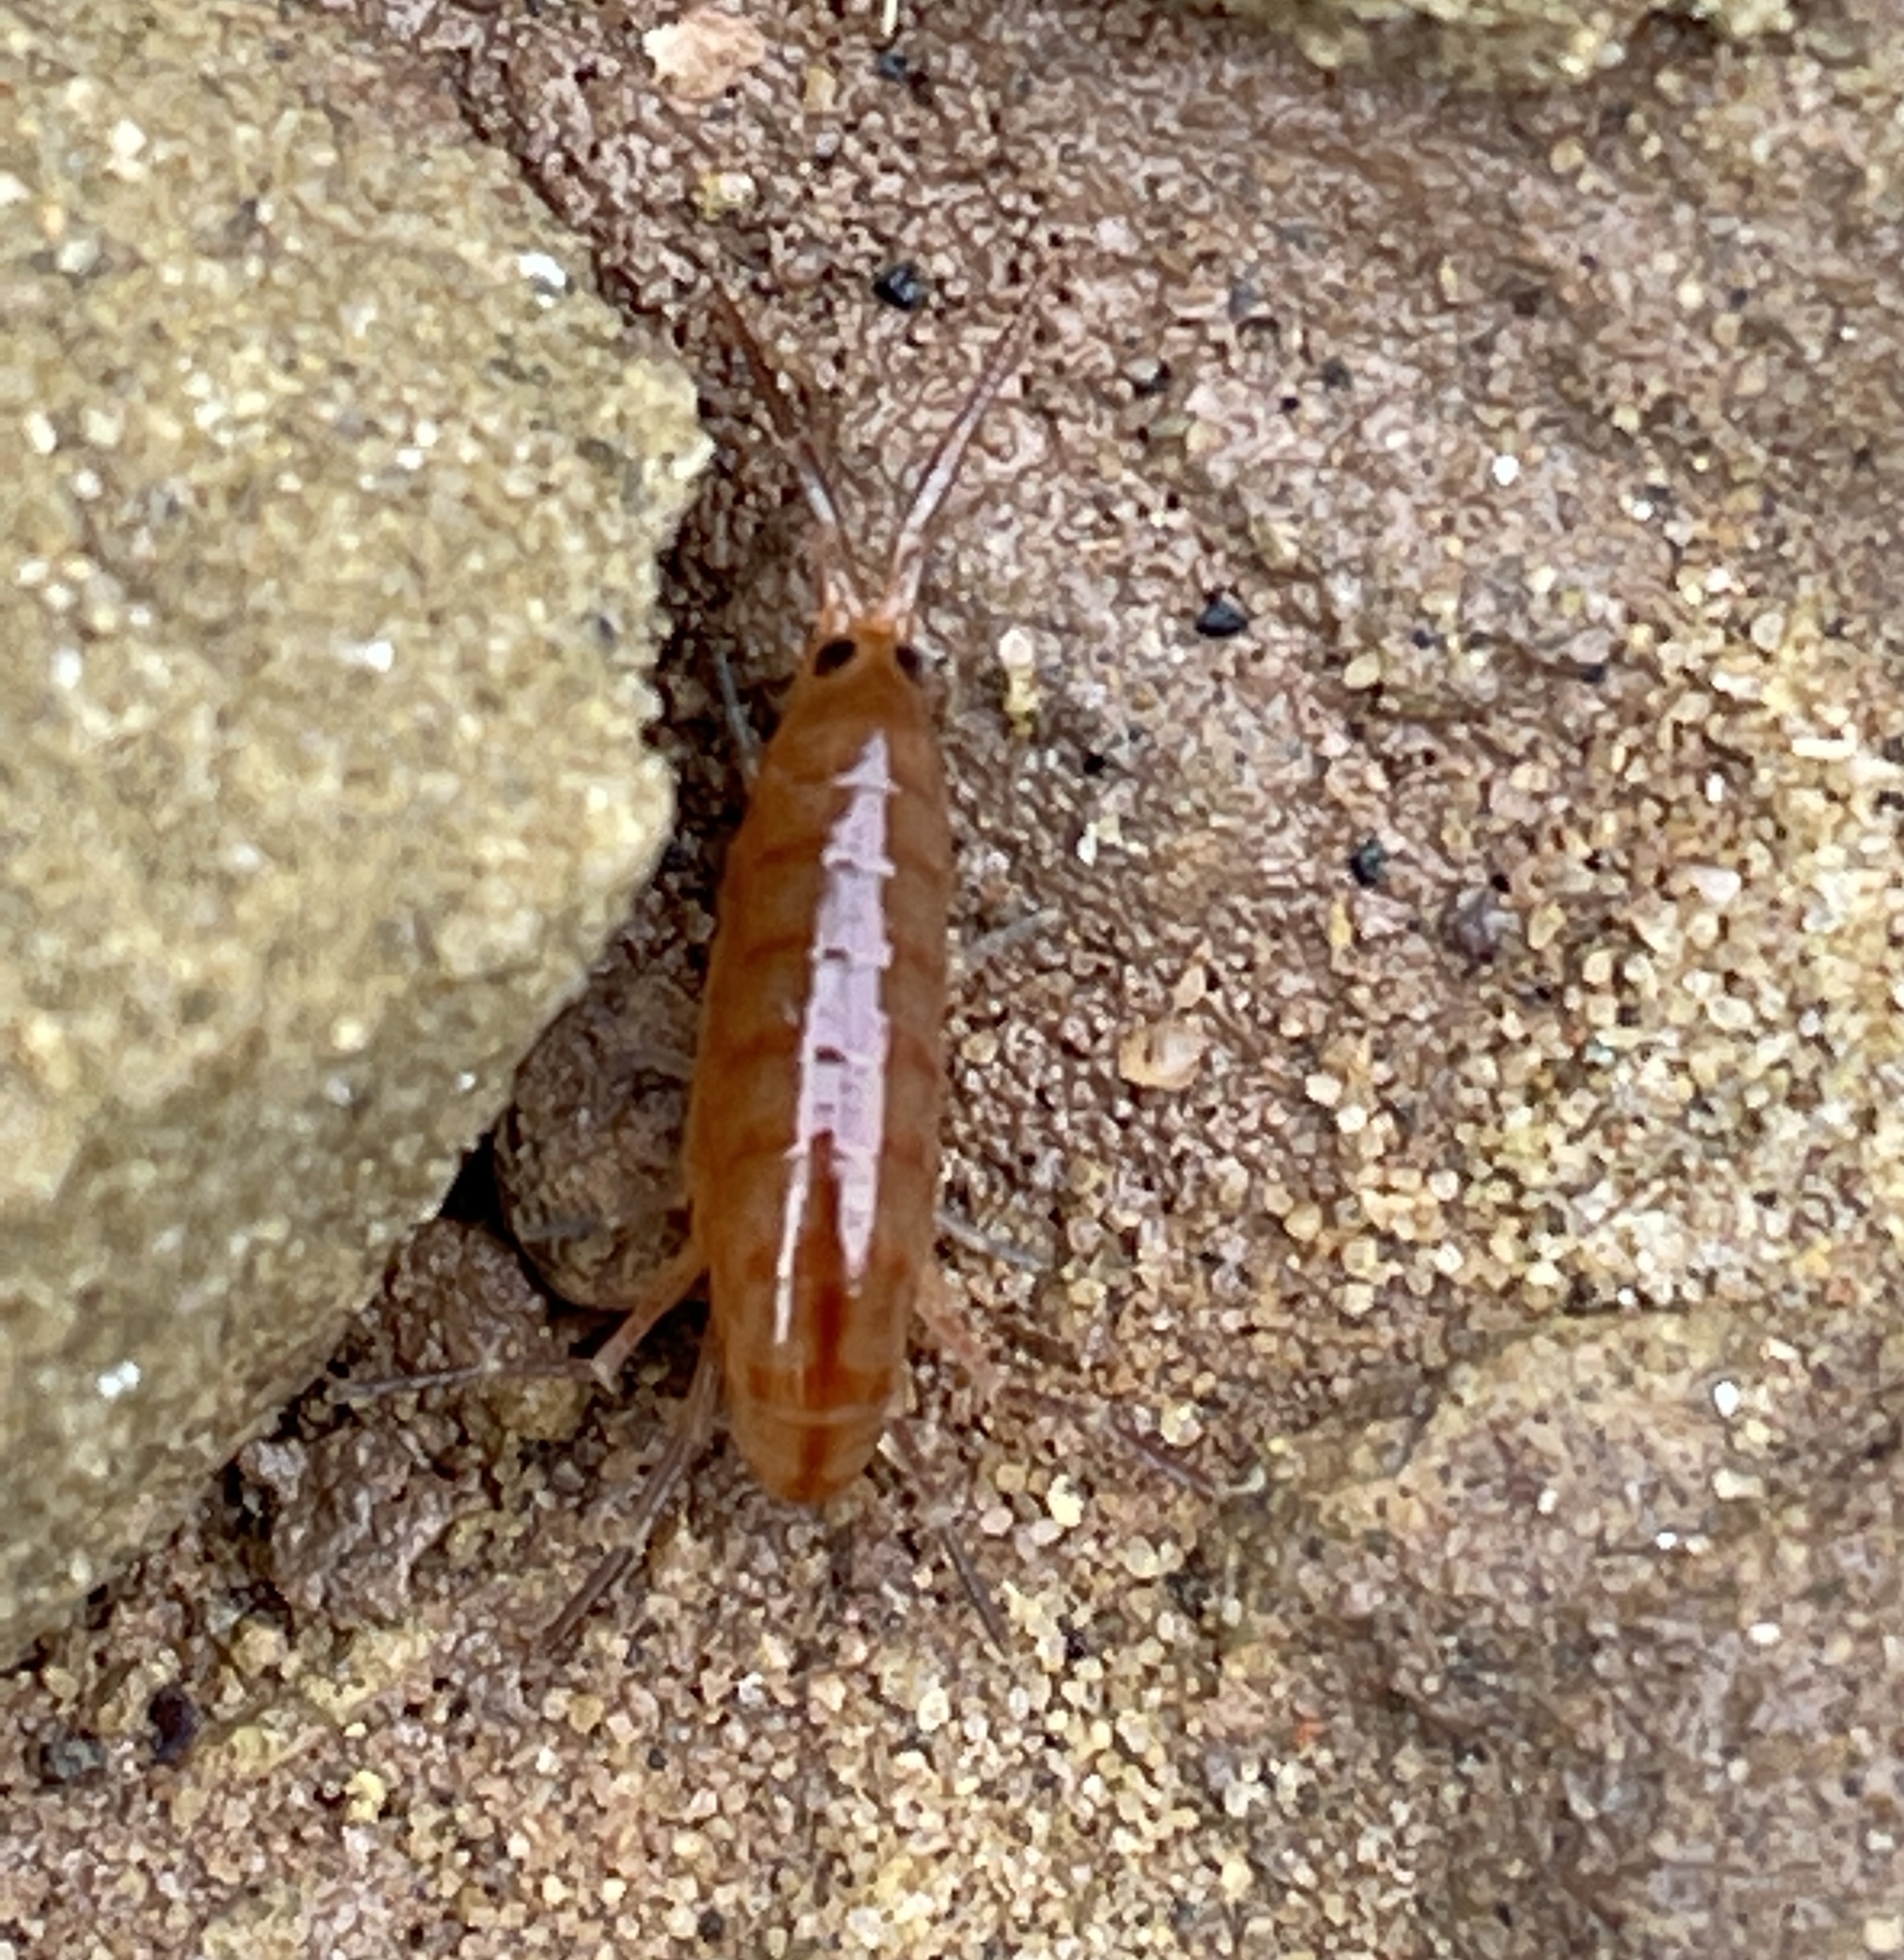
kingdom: Animalia
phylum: Arthropoda
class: Malacostraca
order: Amphipoda
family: Talitridae
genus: Talitrus
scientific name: Talitrus saltator
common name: Sand hopper
